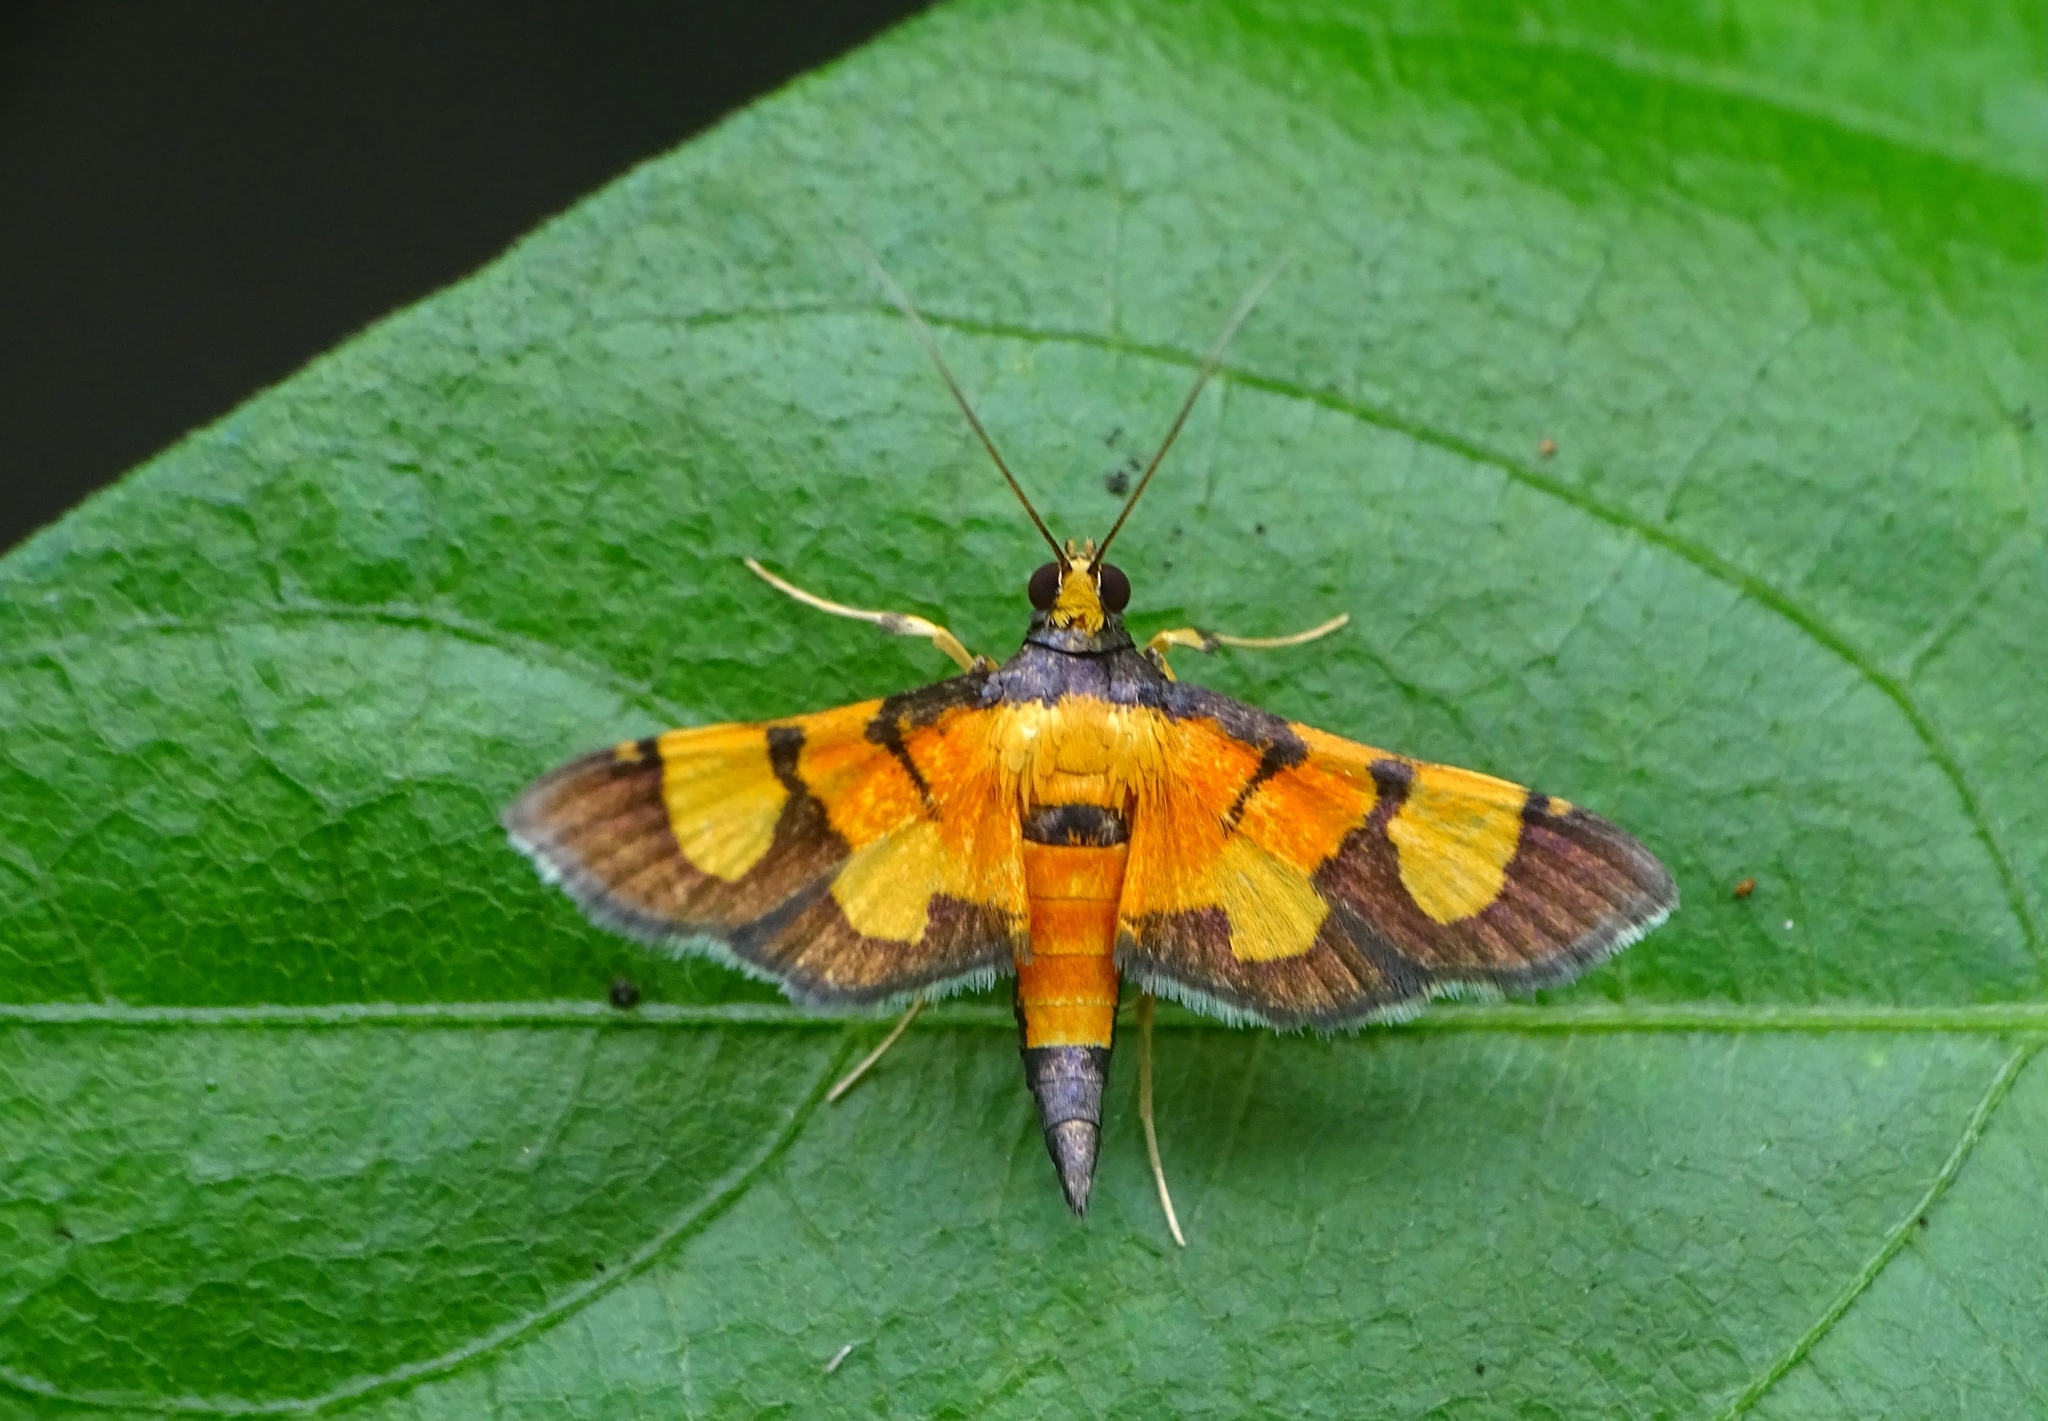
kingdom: Animalia
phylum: Arthropoda
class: Insecta
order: Lepidoptera
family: Crambidae
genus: Aethaloessa
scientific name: Aethaloessa calidalis
